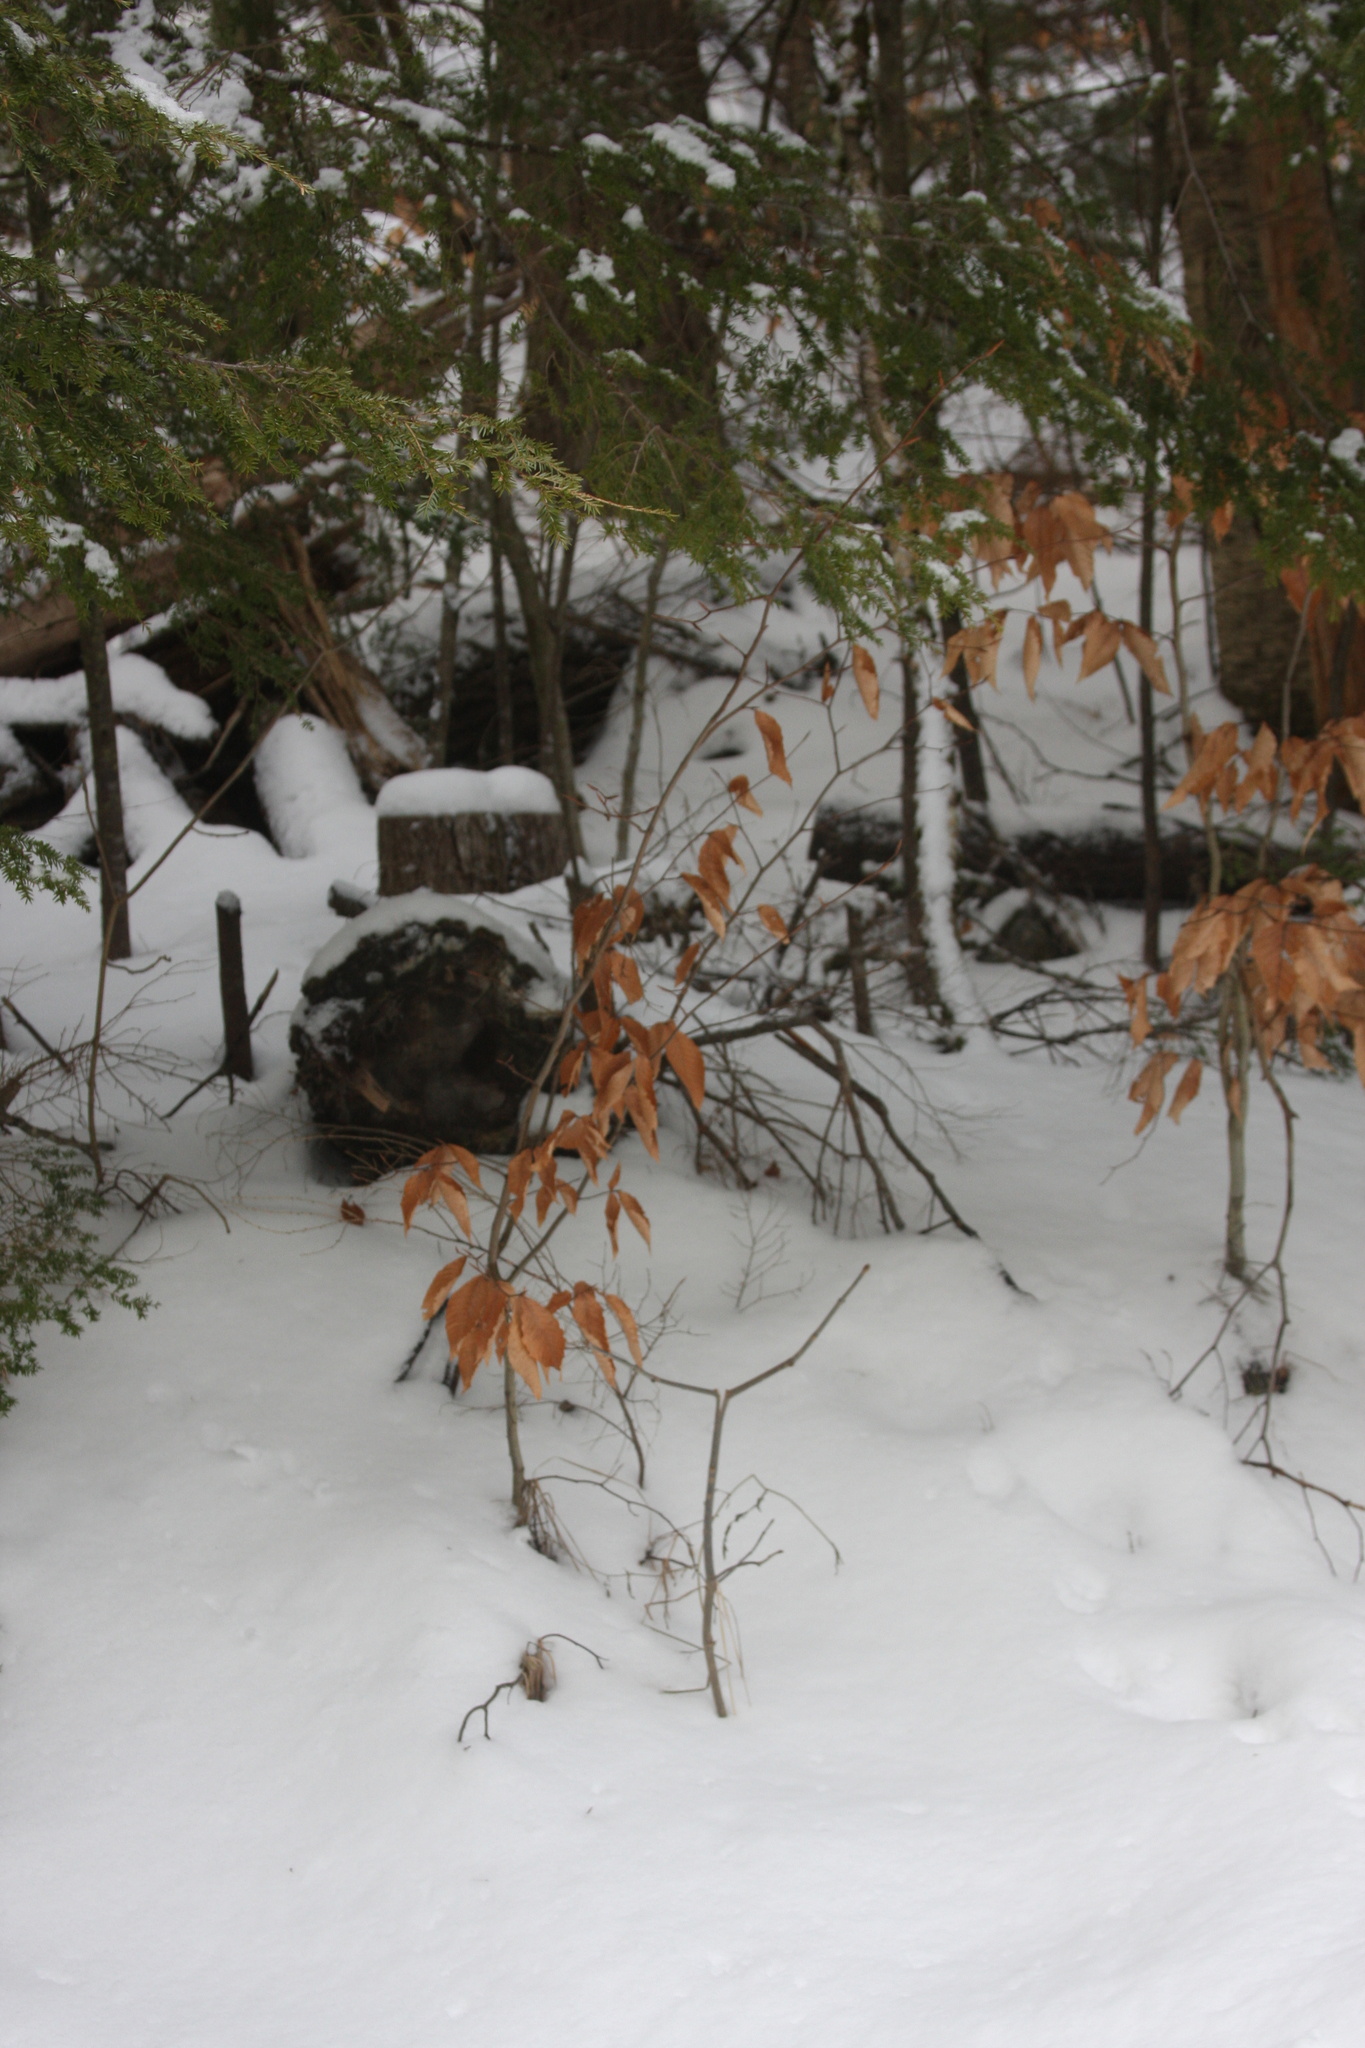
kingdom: Plantae
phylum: Tracheophyta
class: Magnoliopsida
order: Fagales
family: Fagaceae
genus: Fagus
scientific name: Fagus grandifolia
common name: American beech
